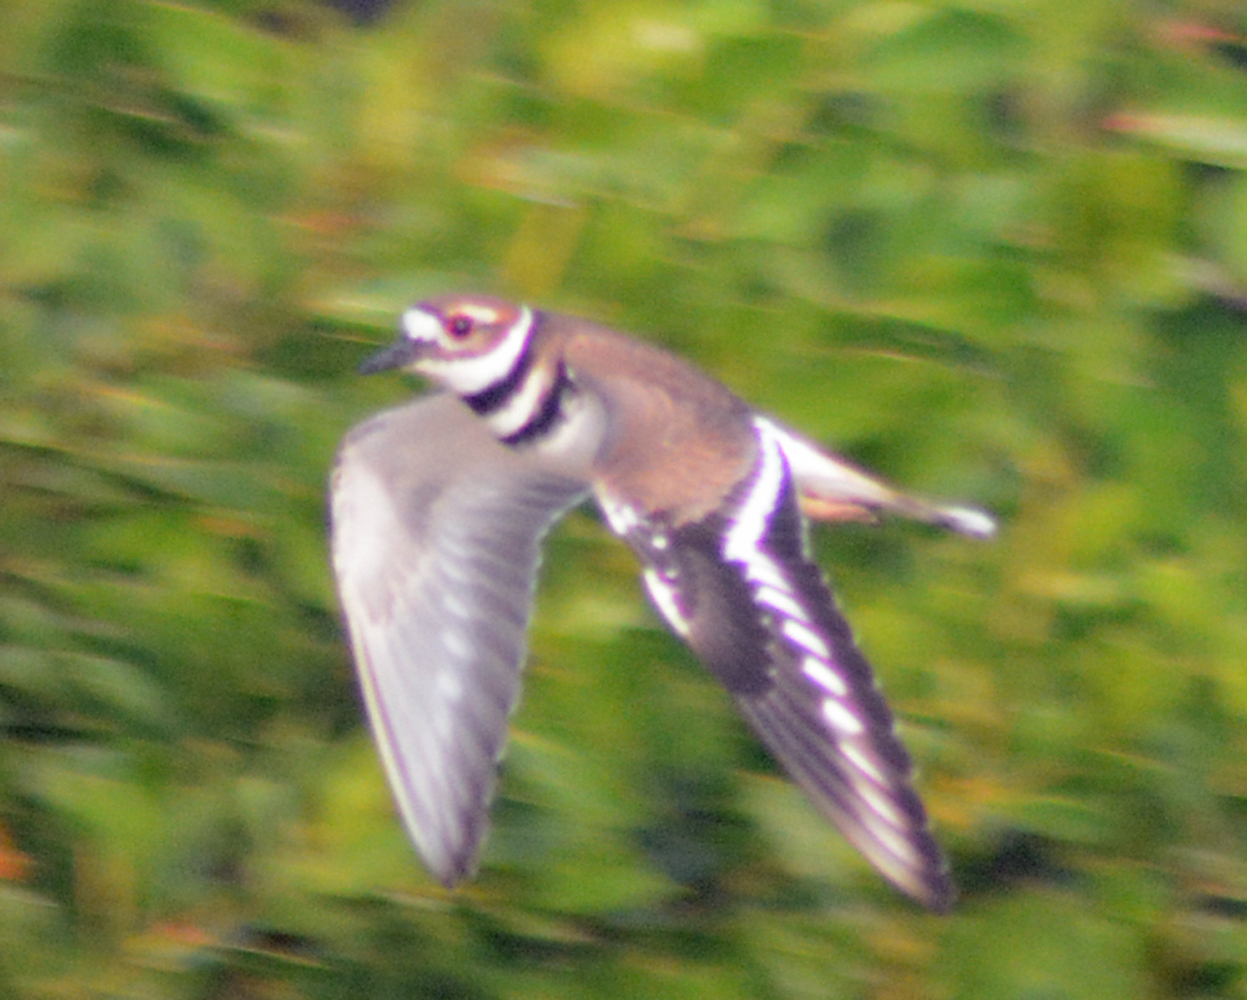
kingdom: Animalia
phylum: Chordata
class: Aves
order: Charadriiformes
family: Charadriidae
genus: Charadrius
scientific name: Charadrius vociferus
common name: Killdeer
